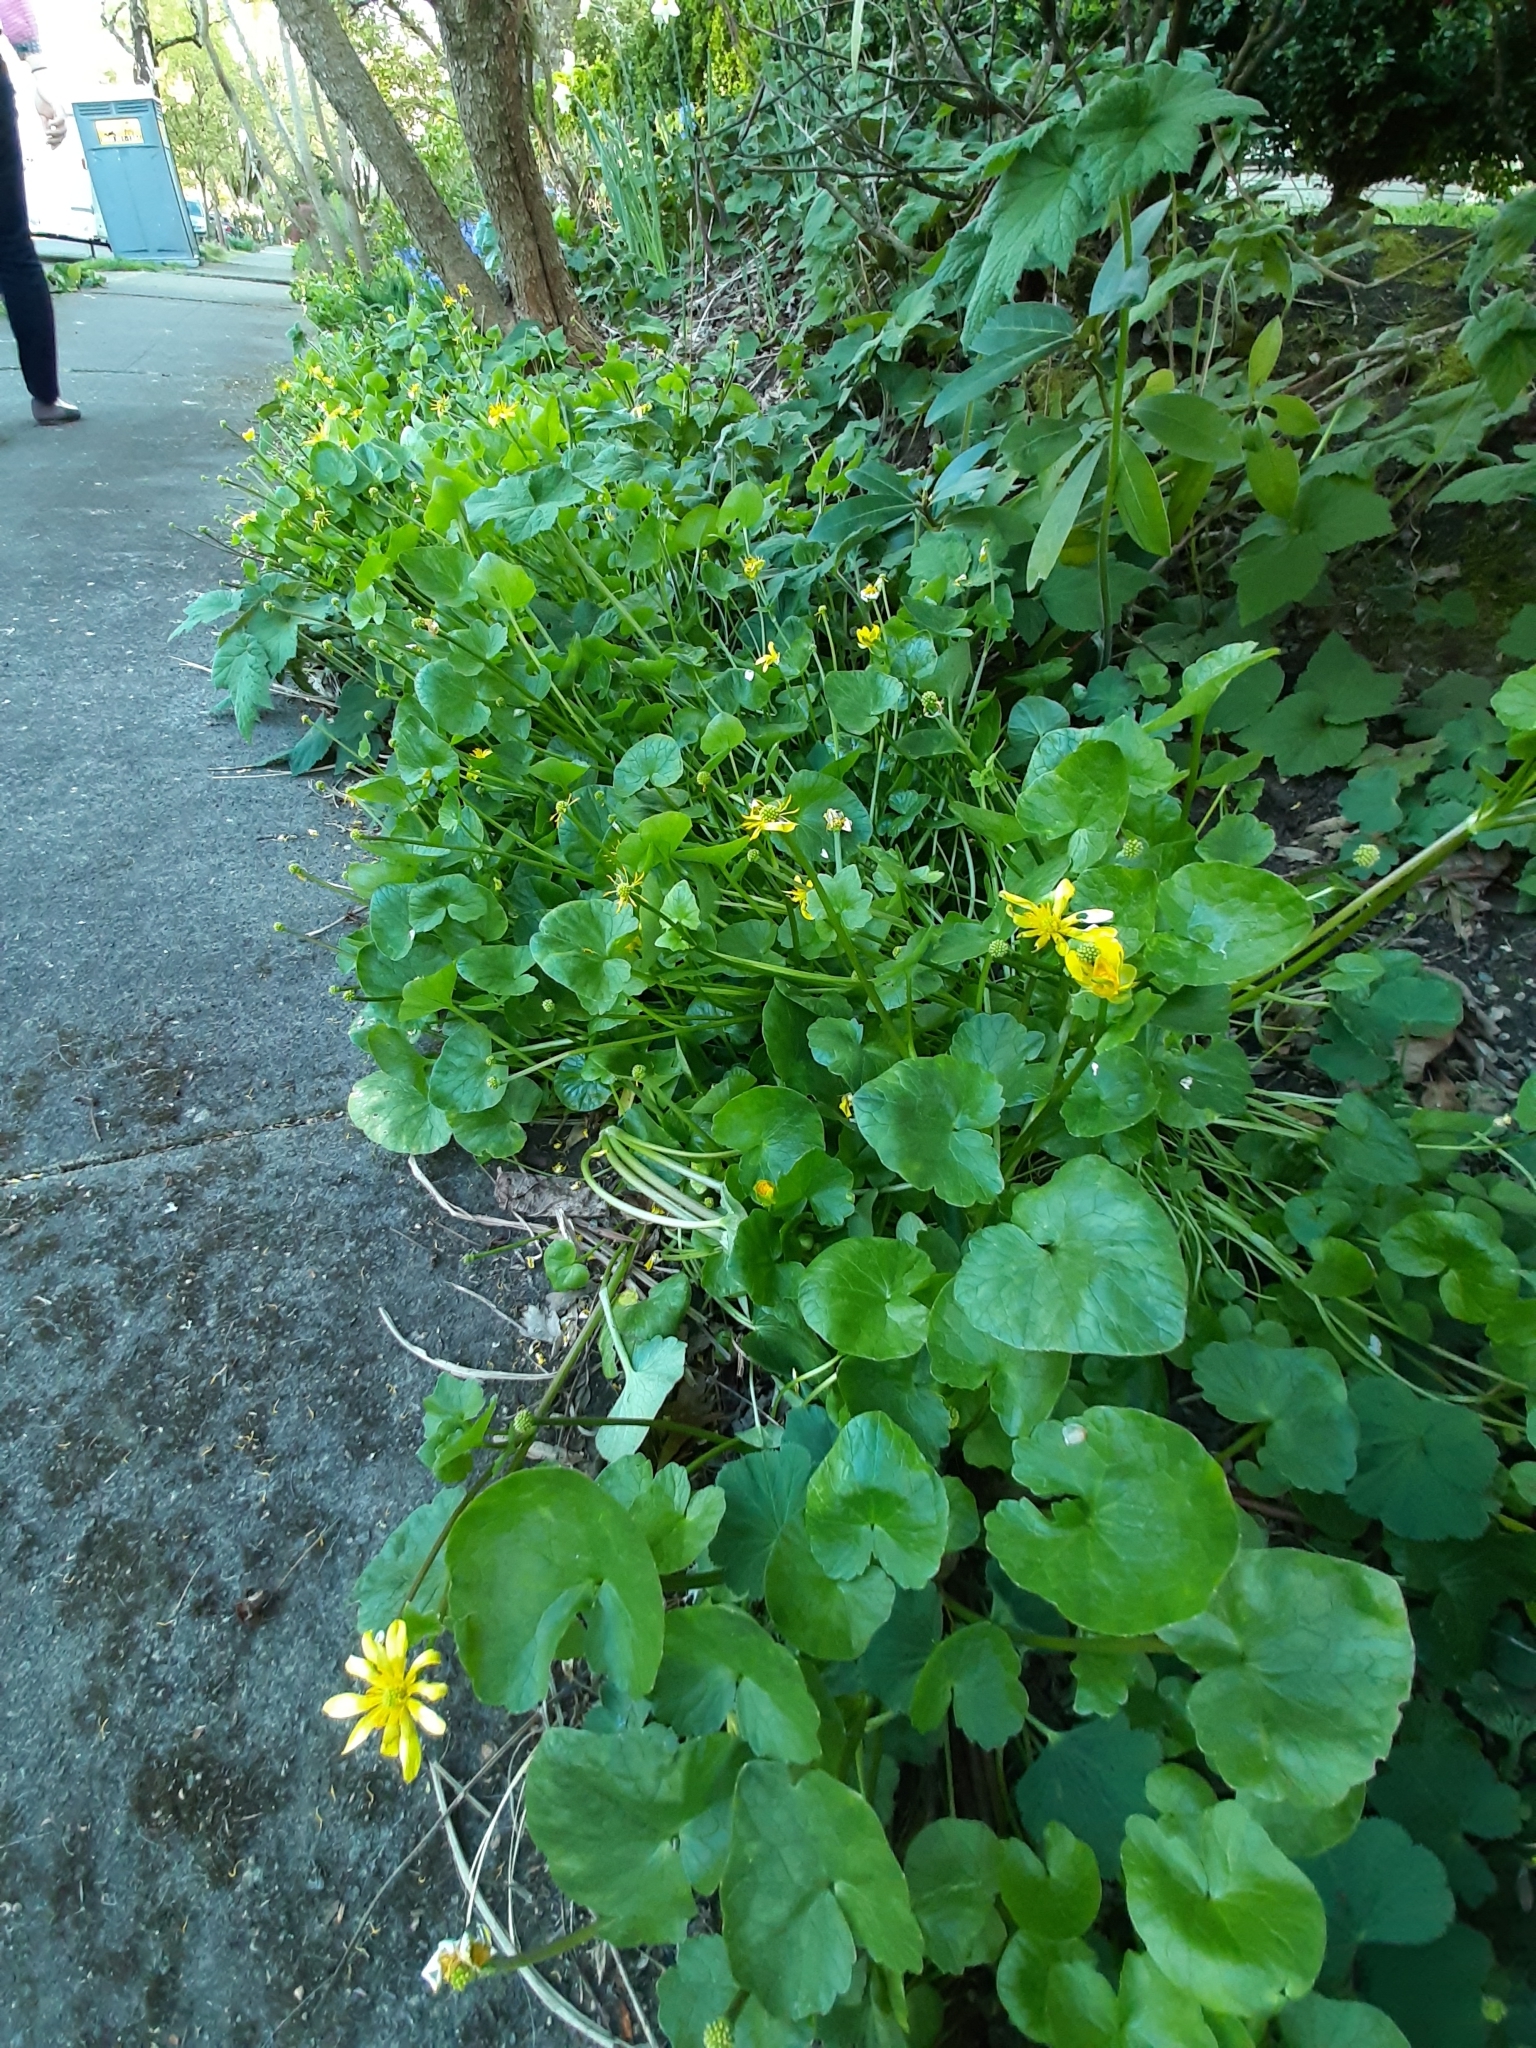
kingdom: Plantae
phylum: Tracheophyta
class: Magnoliopsida
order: Ranunculales
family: Ranunculaceae
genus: Ficaria
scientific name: Ficaria verna
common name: Lesser celandine
